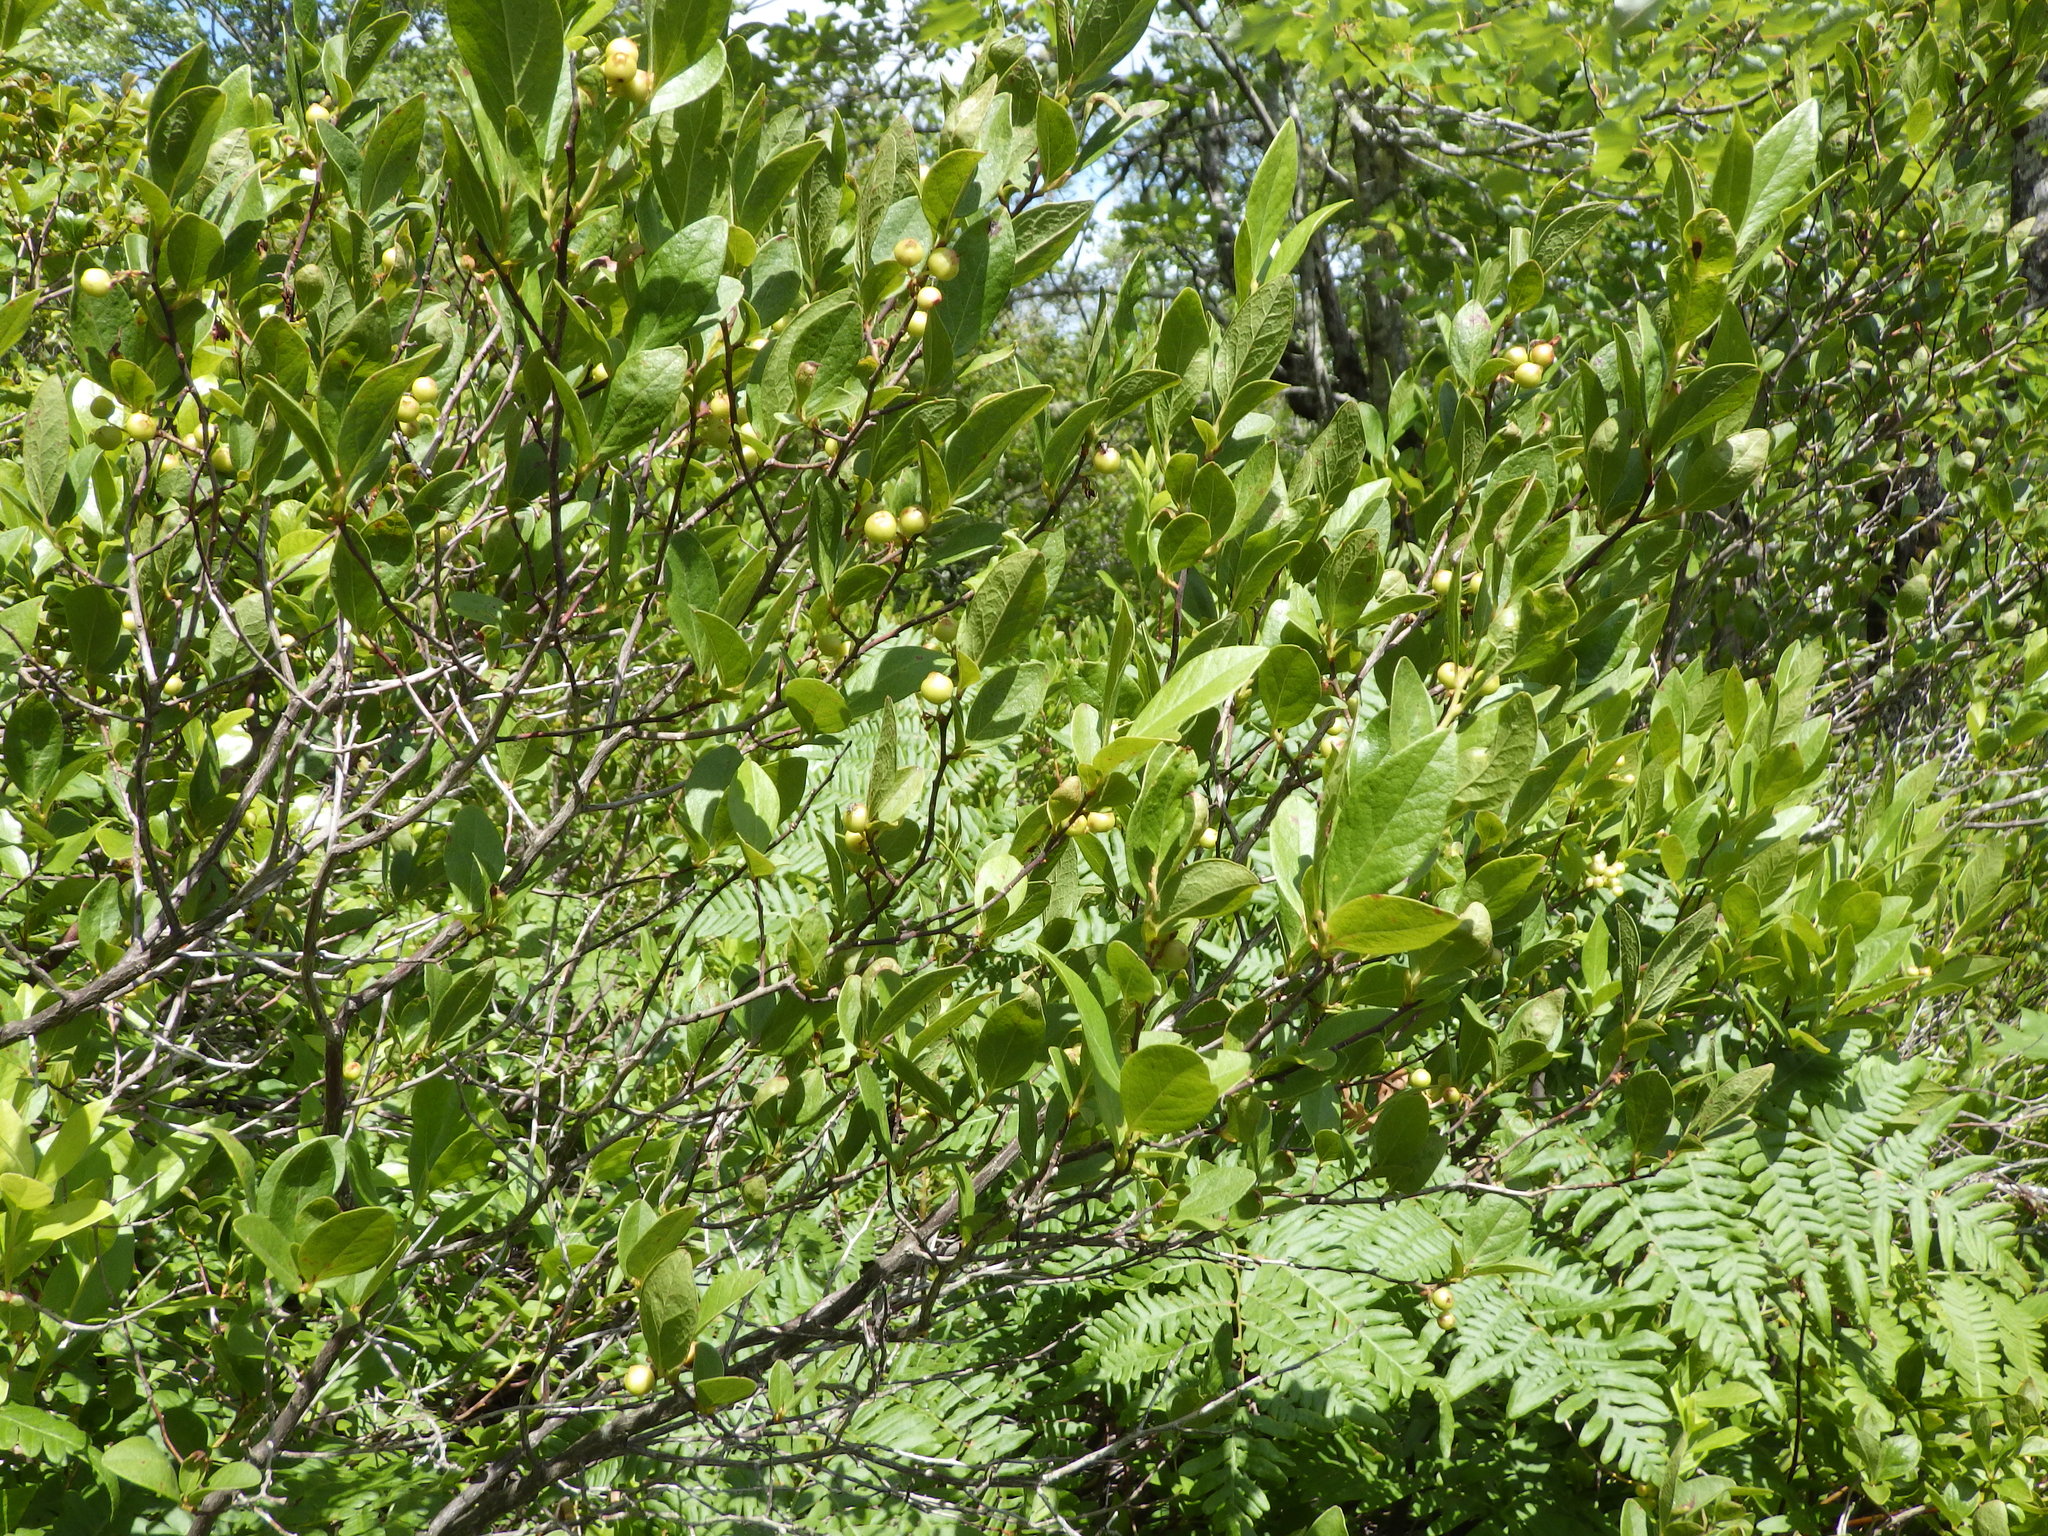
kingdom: Plantae
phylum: Tracheophyta
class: Magnoliopsida
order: Ericales
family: Ericaceae
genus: Gaylussacia
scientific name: Gaylussacia baccata
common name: Black huckleberry
